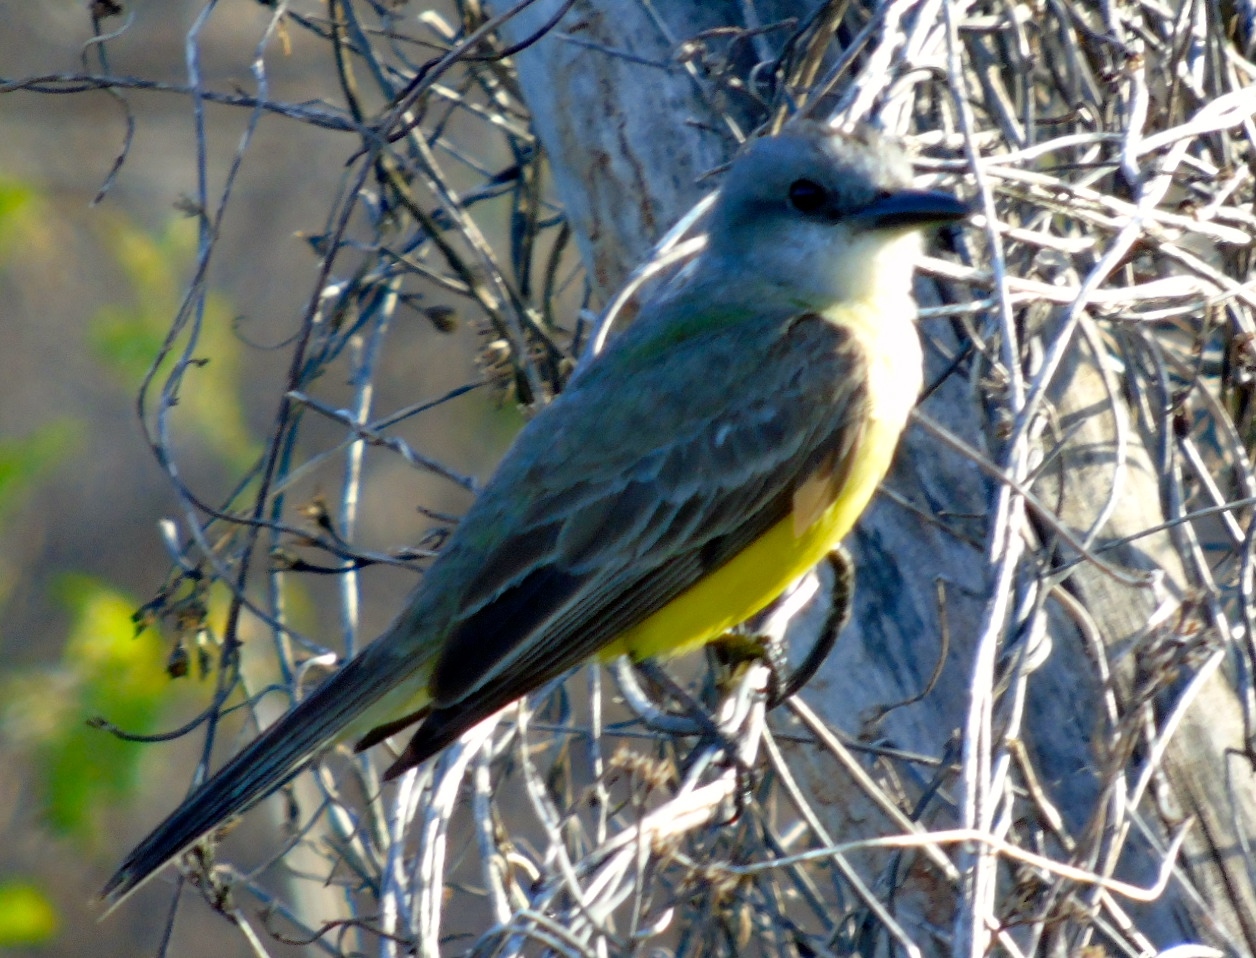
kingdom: Animalia
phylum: Chordata
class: Aves
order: Passeriformes
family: Tyrannidae
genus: Tyrannus
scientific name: Tyrannus melancholicus
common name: Tropical kingbird
